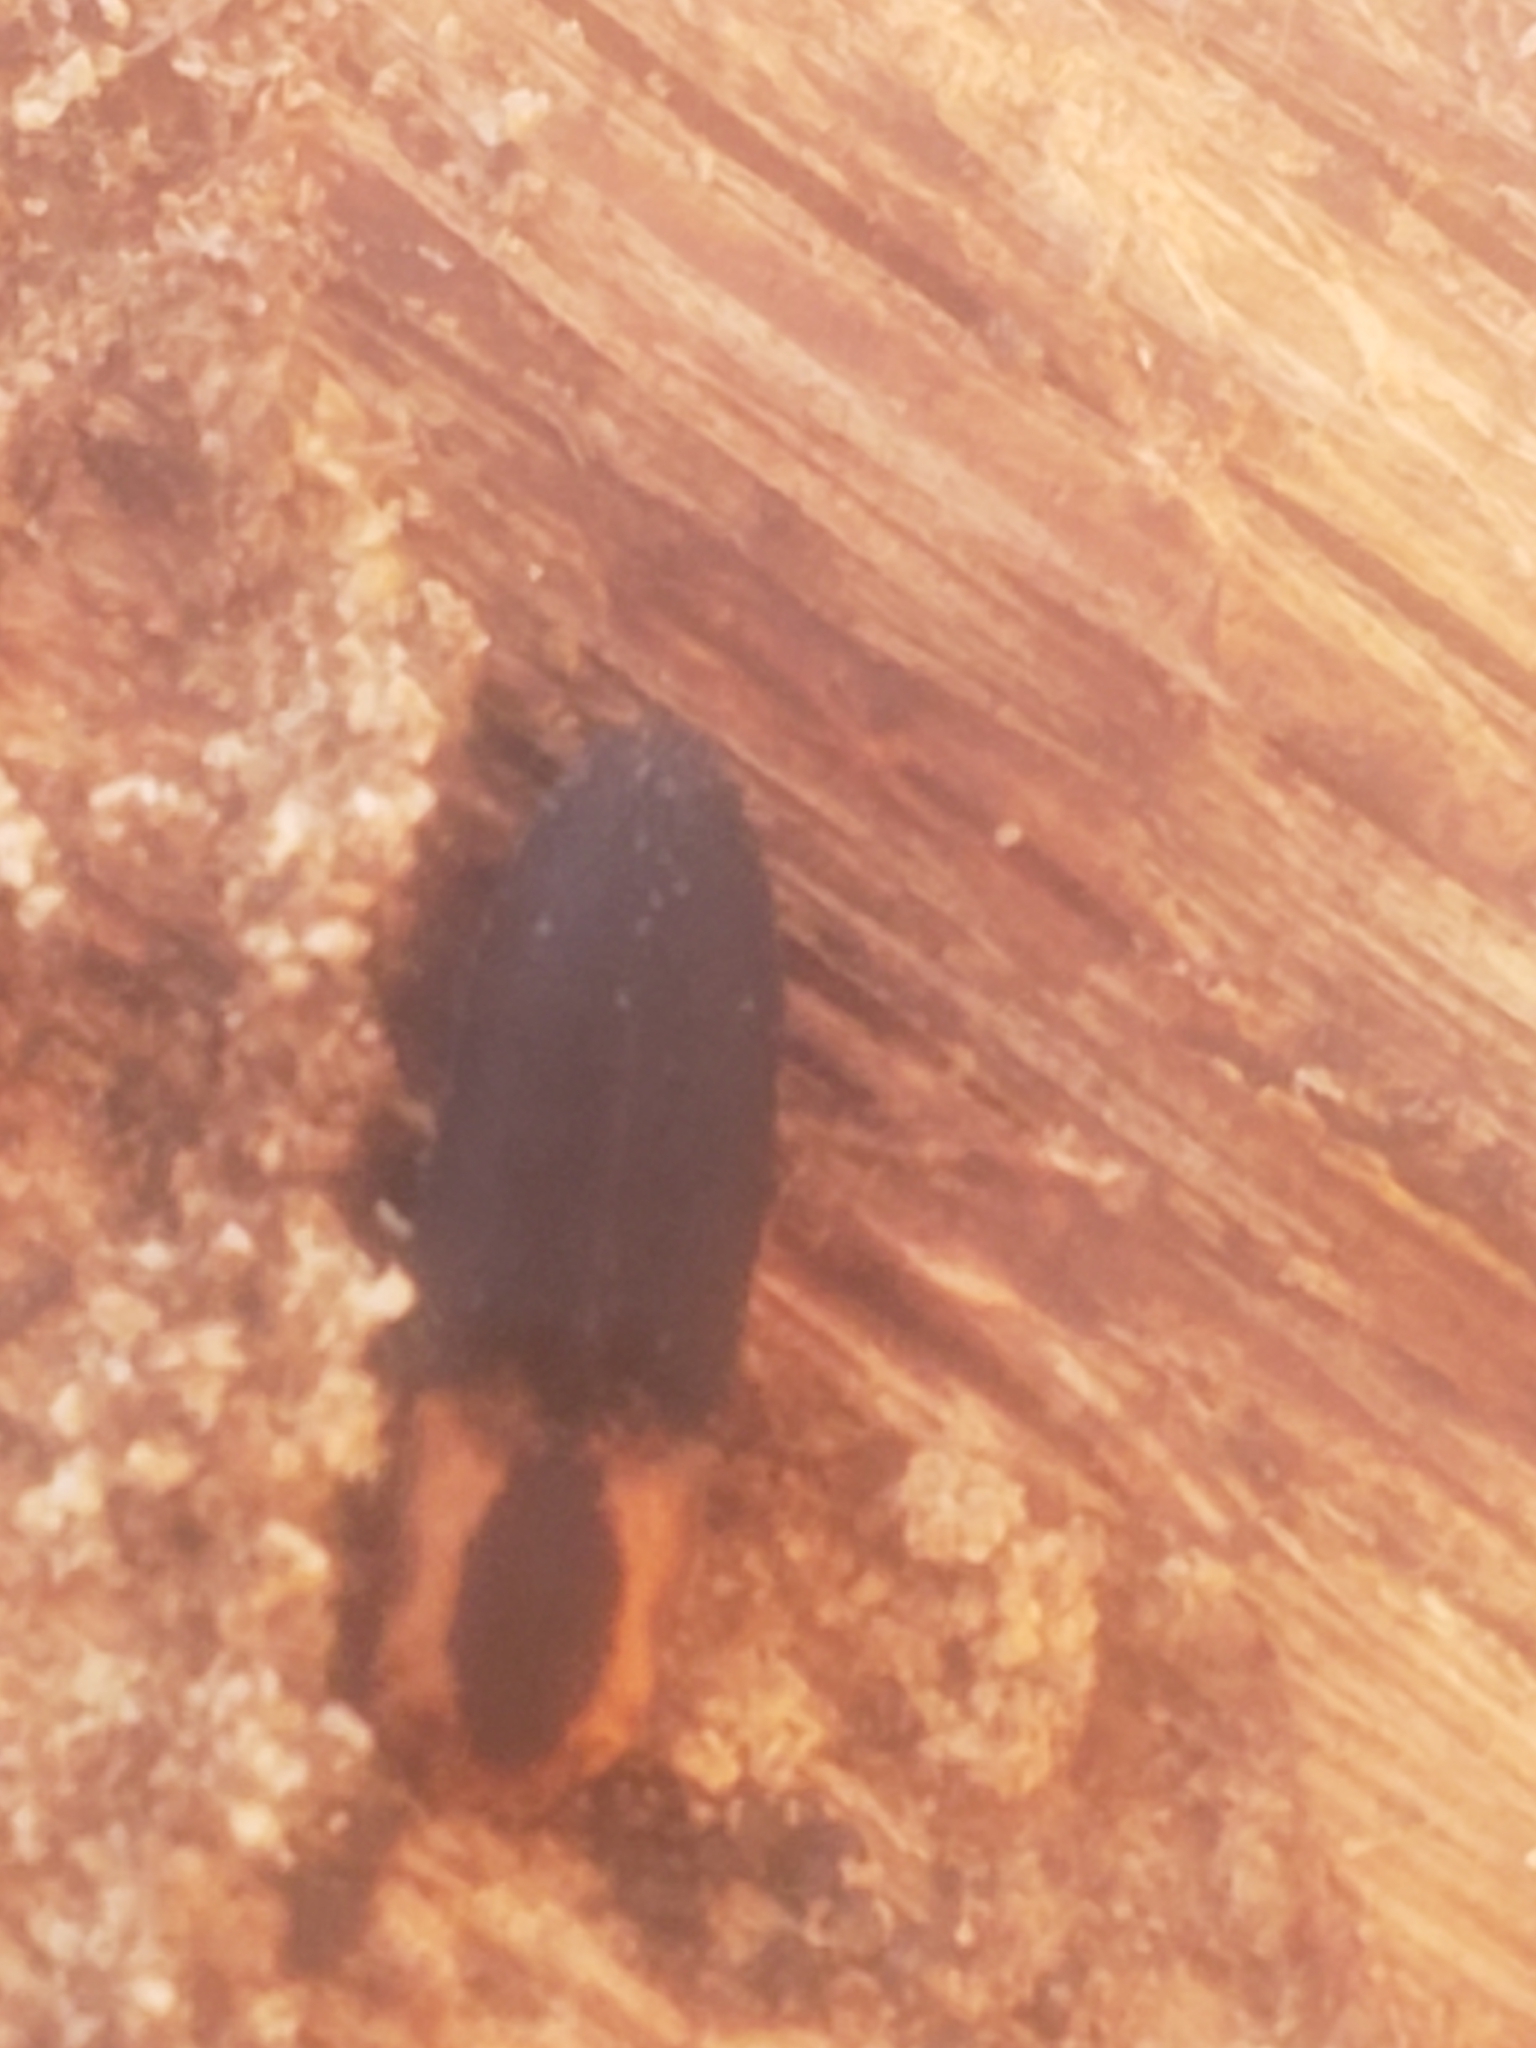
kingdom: Animalia
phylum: Arthropoda
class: Insecta
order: Coleoptera
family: Elateridae
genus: Lacon
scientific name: Lacon discoideus
